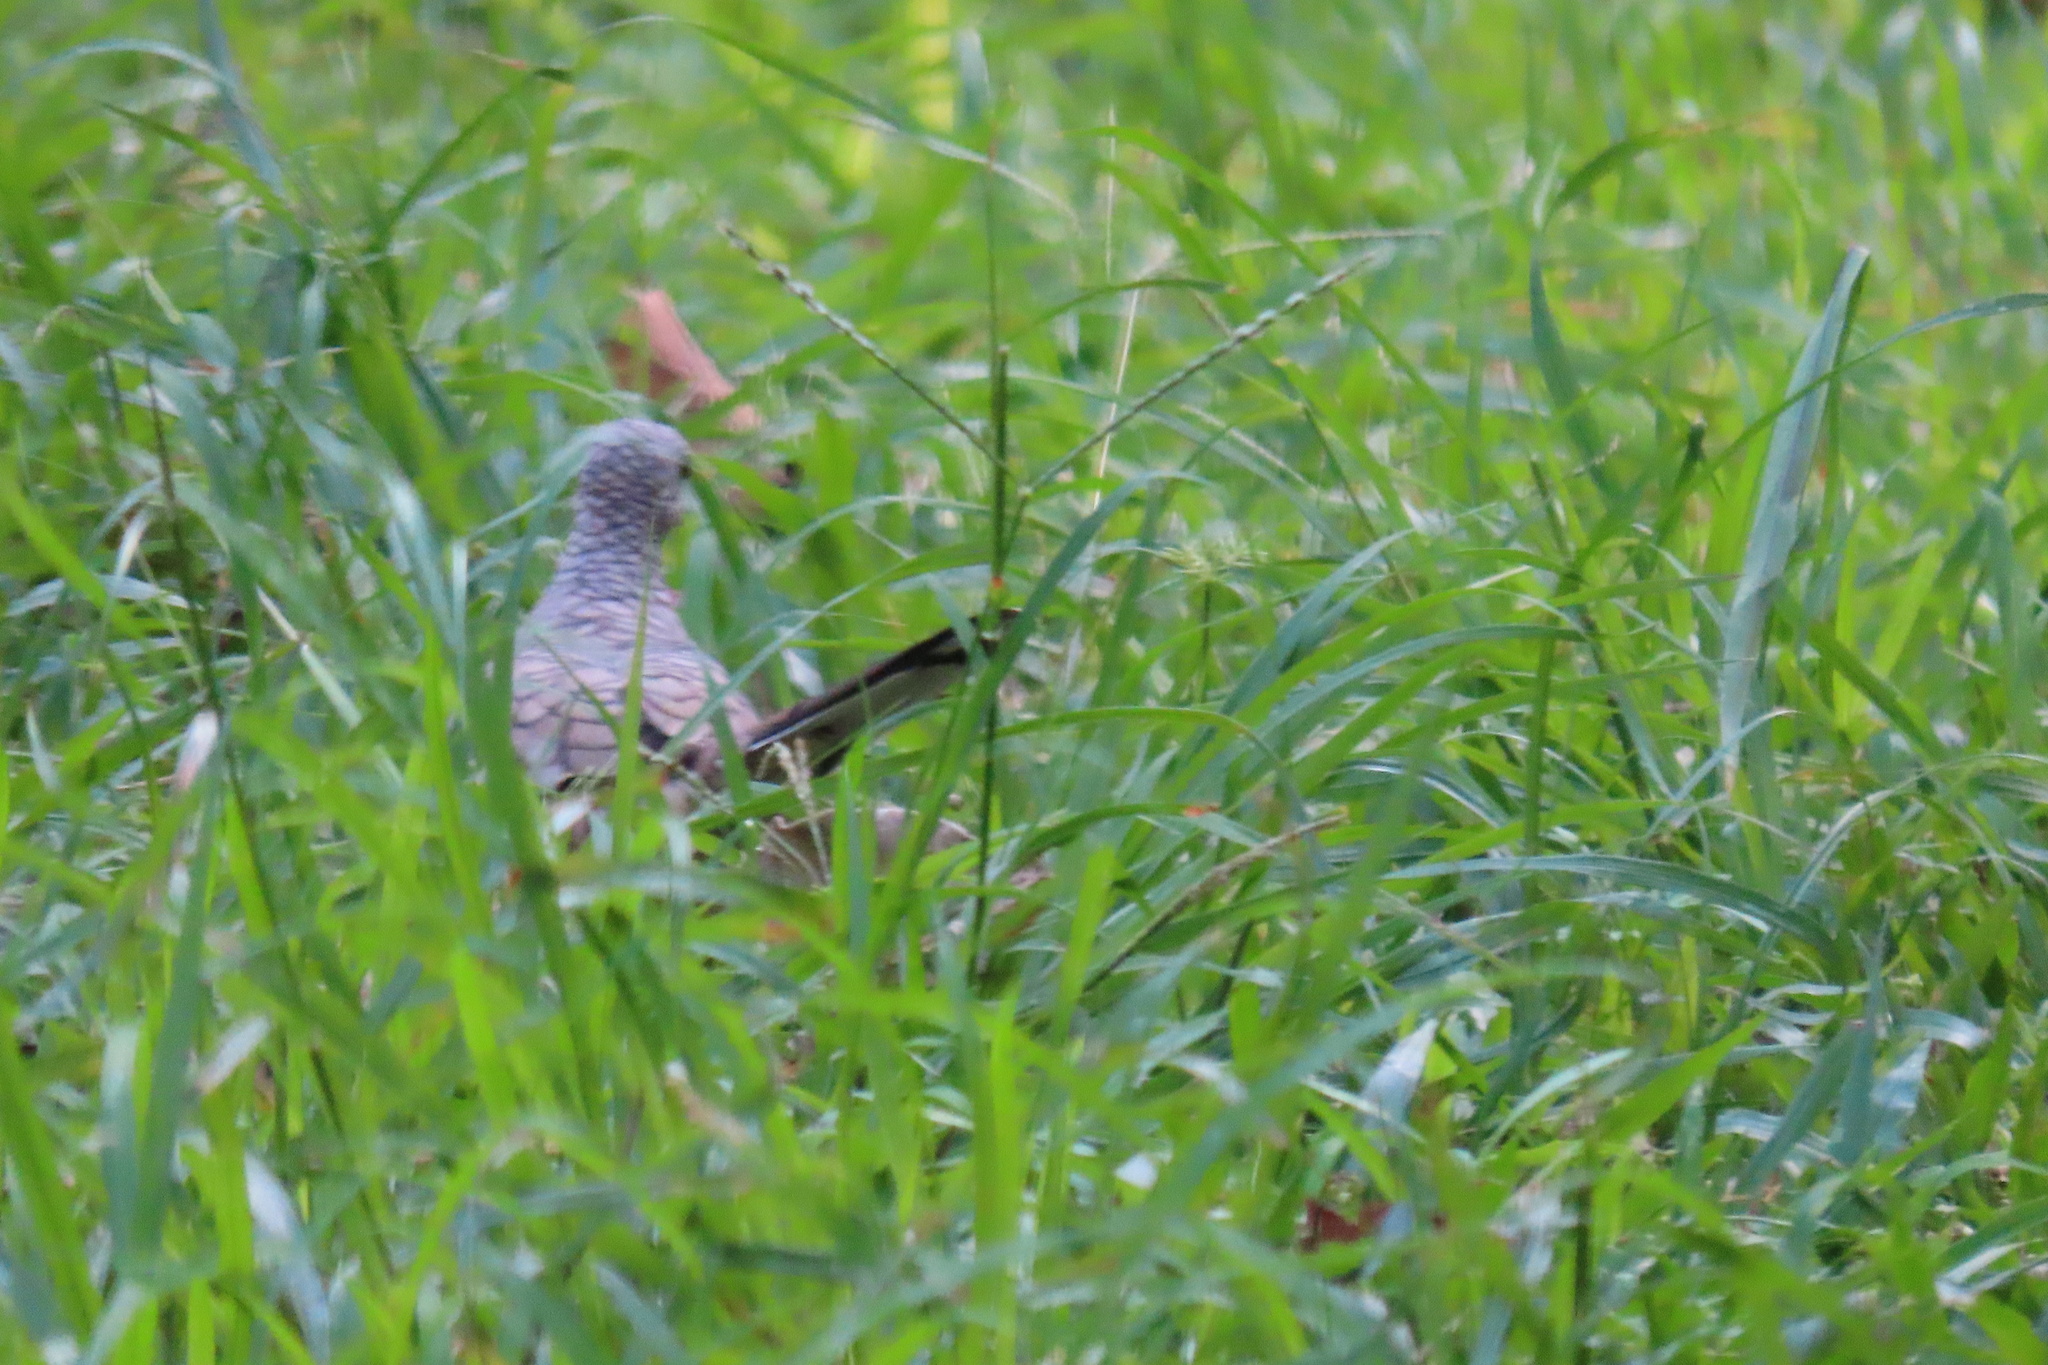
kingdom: Animalia
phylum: Chordata
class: Aves
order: Columbiformes
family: Columbidae
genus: Columbina
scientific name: Columbina inca
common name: Inca dove
